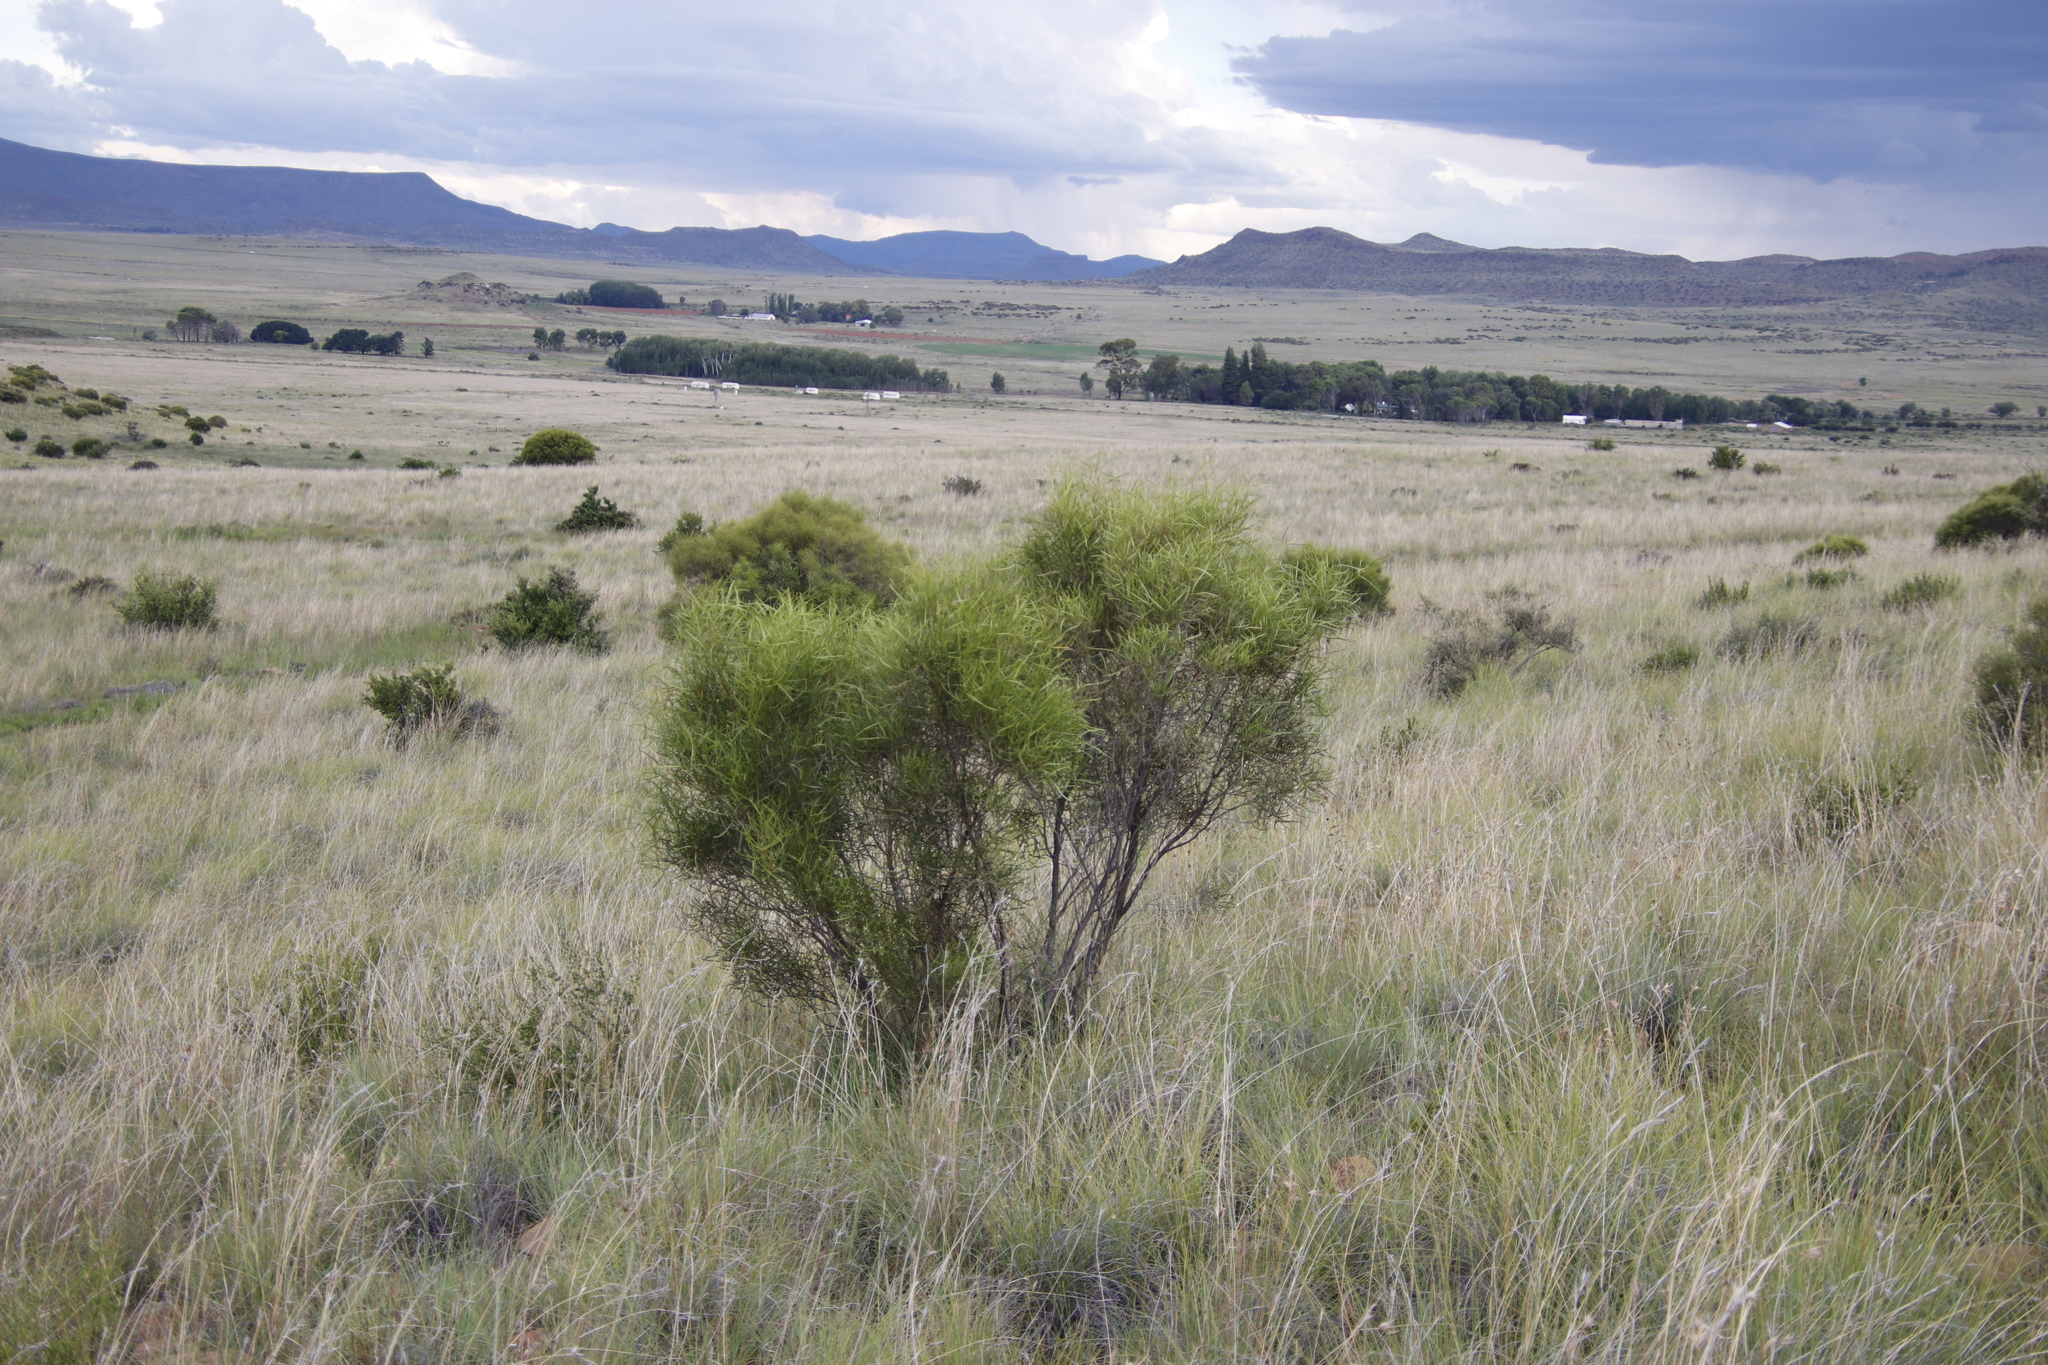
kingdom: Plantae
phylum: Tracheophyta
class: Magnoliopsida
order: Sapindales
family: Anacardiaceae
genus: Searsia
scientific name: Searsia erosa
